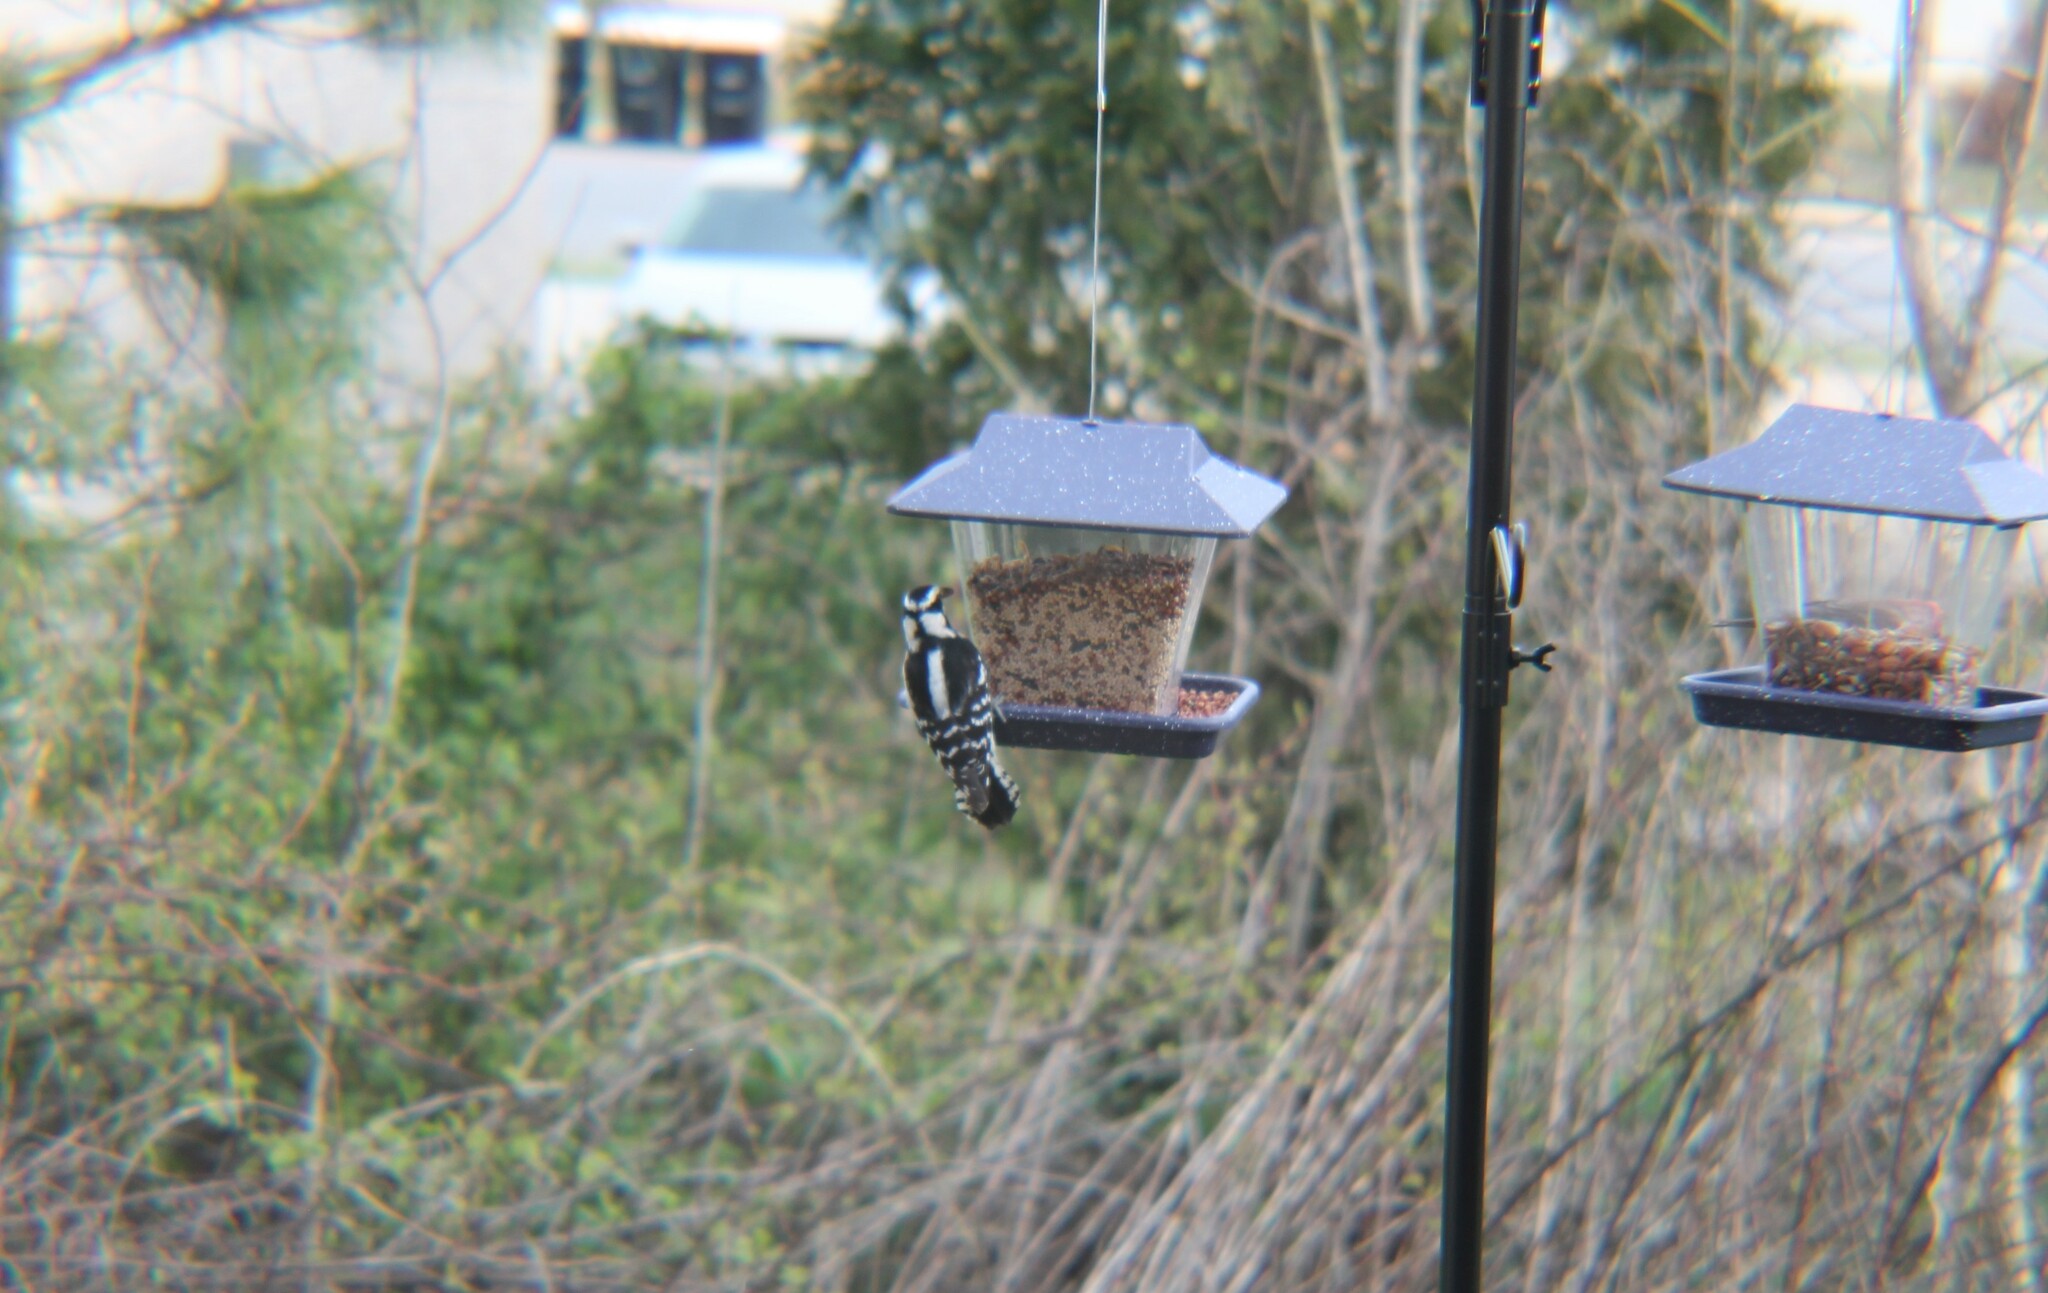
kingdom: Animalia
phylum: Chordata
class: Aves
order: Piciformes
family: Picidae
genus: Dryobates
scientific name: Dryobates pubescens
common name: Downy woodpecker
